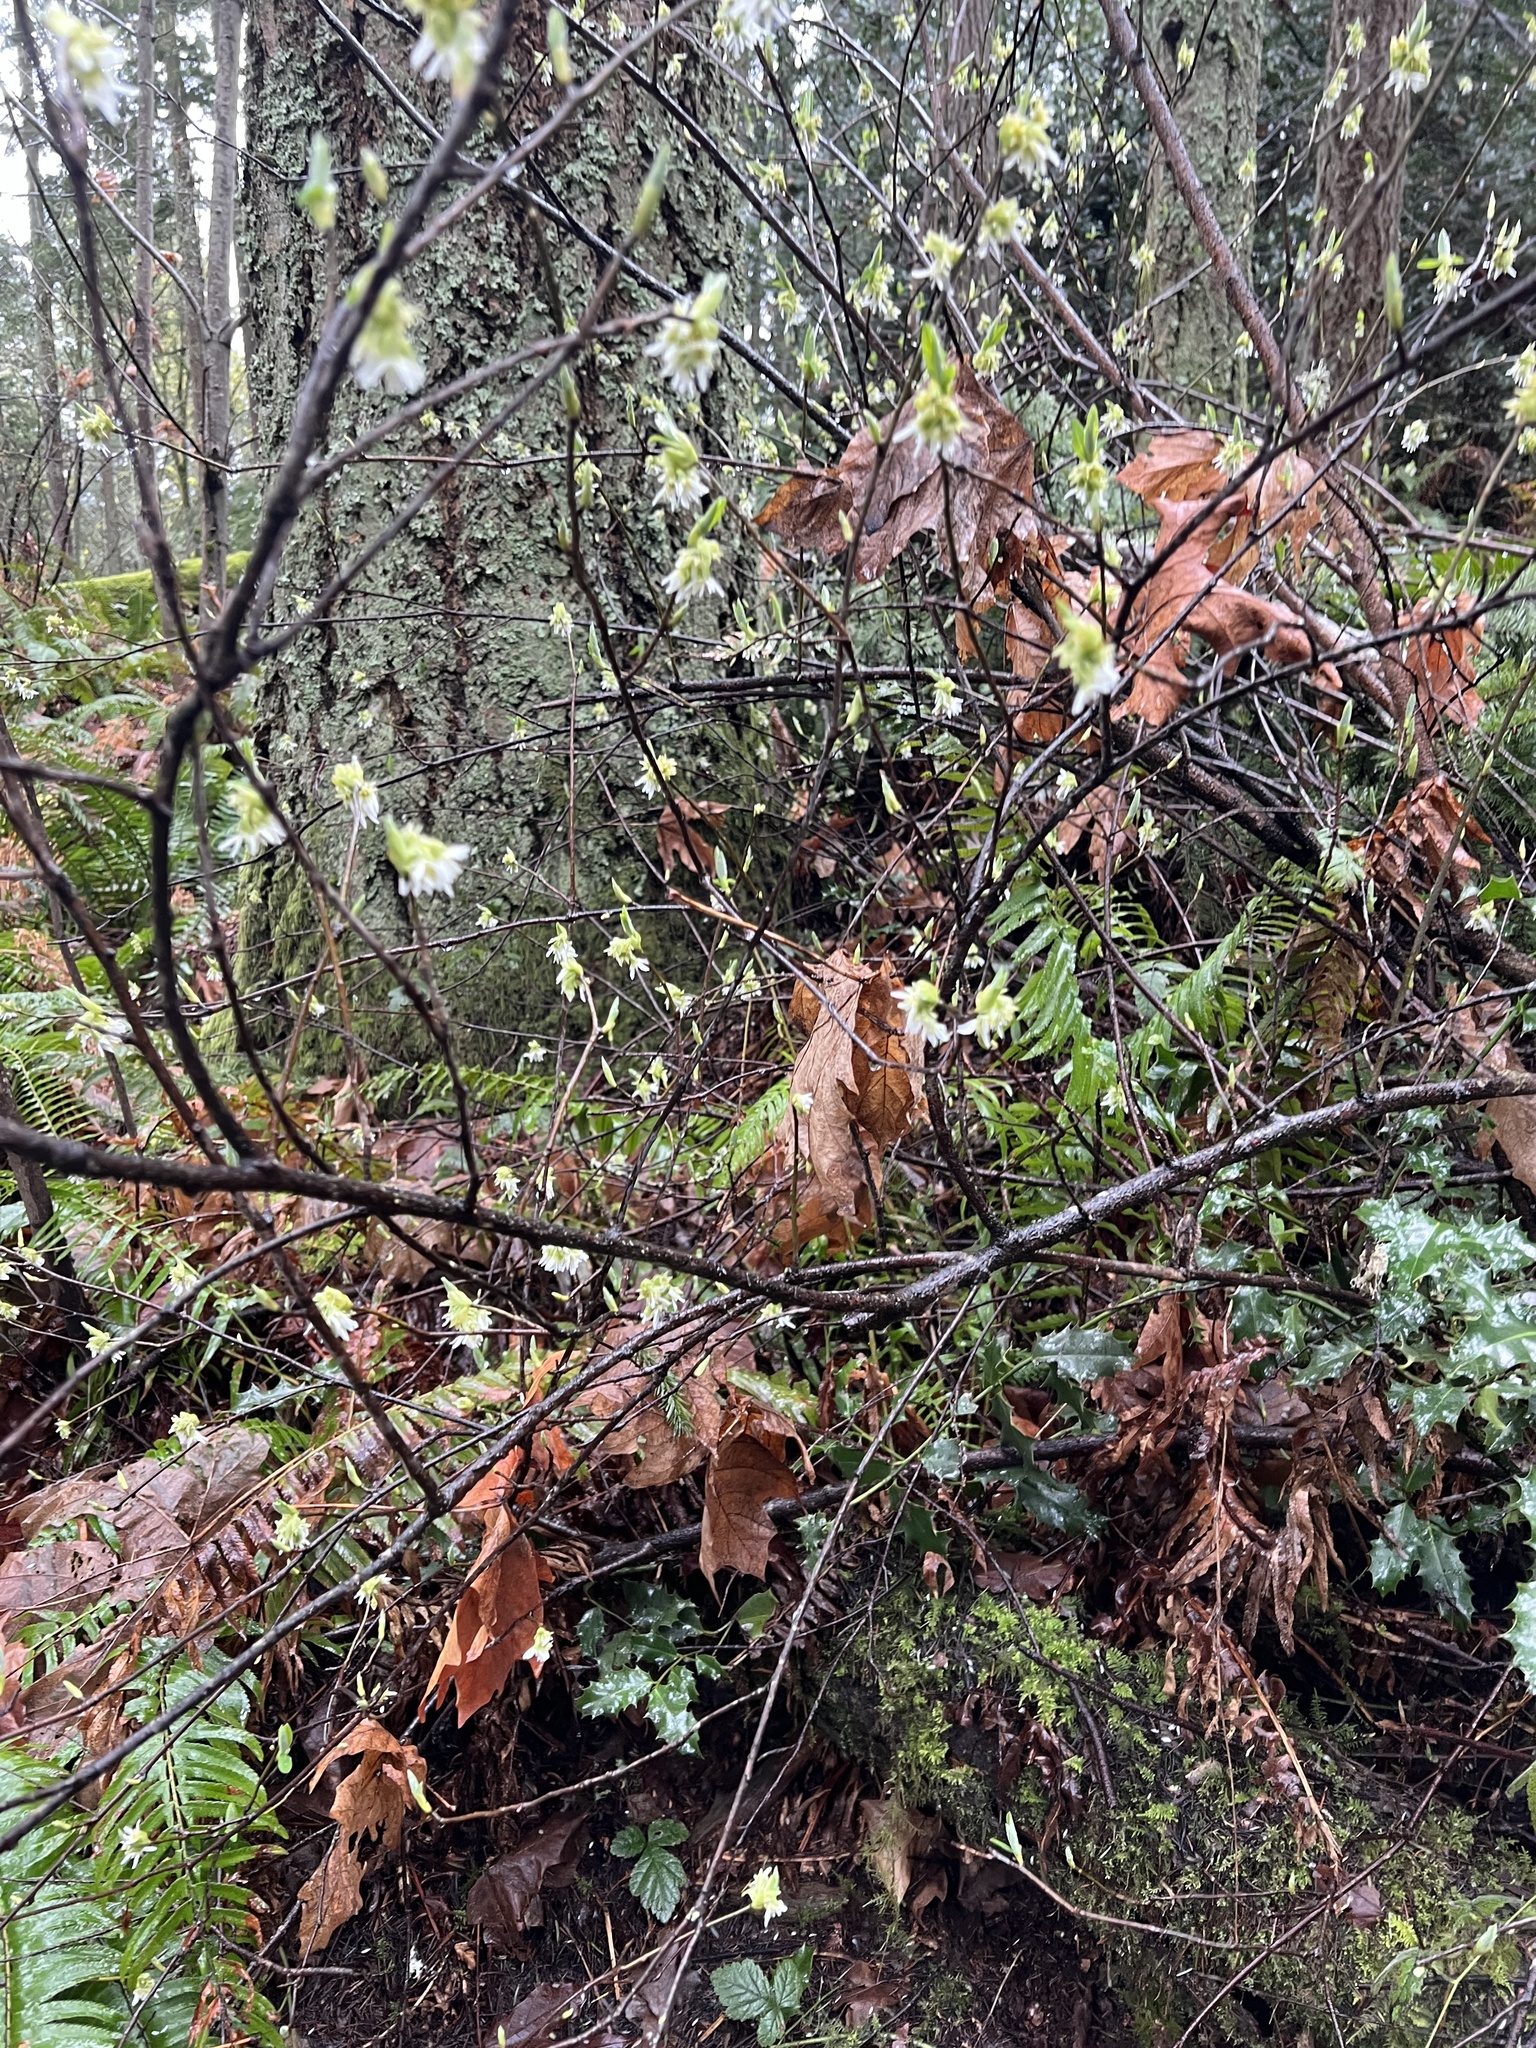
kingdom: Plantae
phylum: Tracheophyta
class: Magnoliopsida
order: Rosales
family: Rosaceae
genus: Oemleria
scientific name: Oemleria cerasiformis
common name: Osoberry
